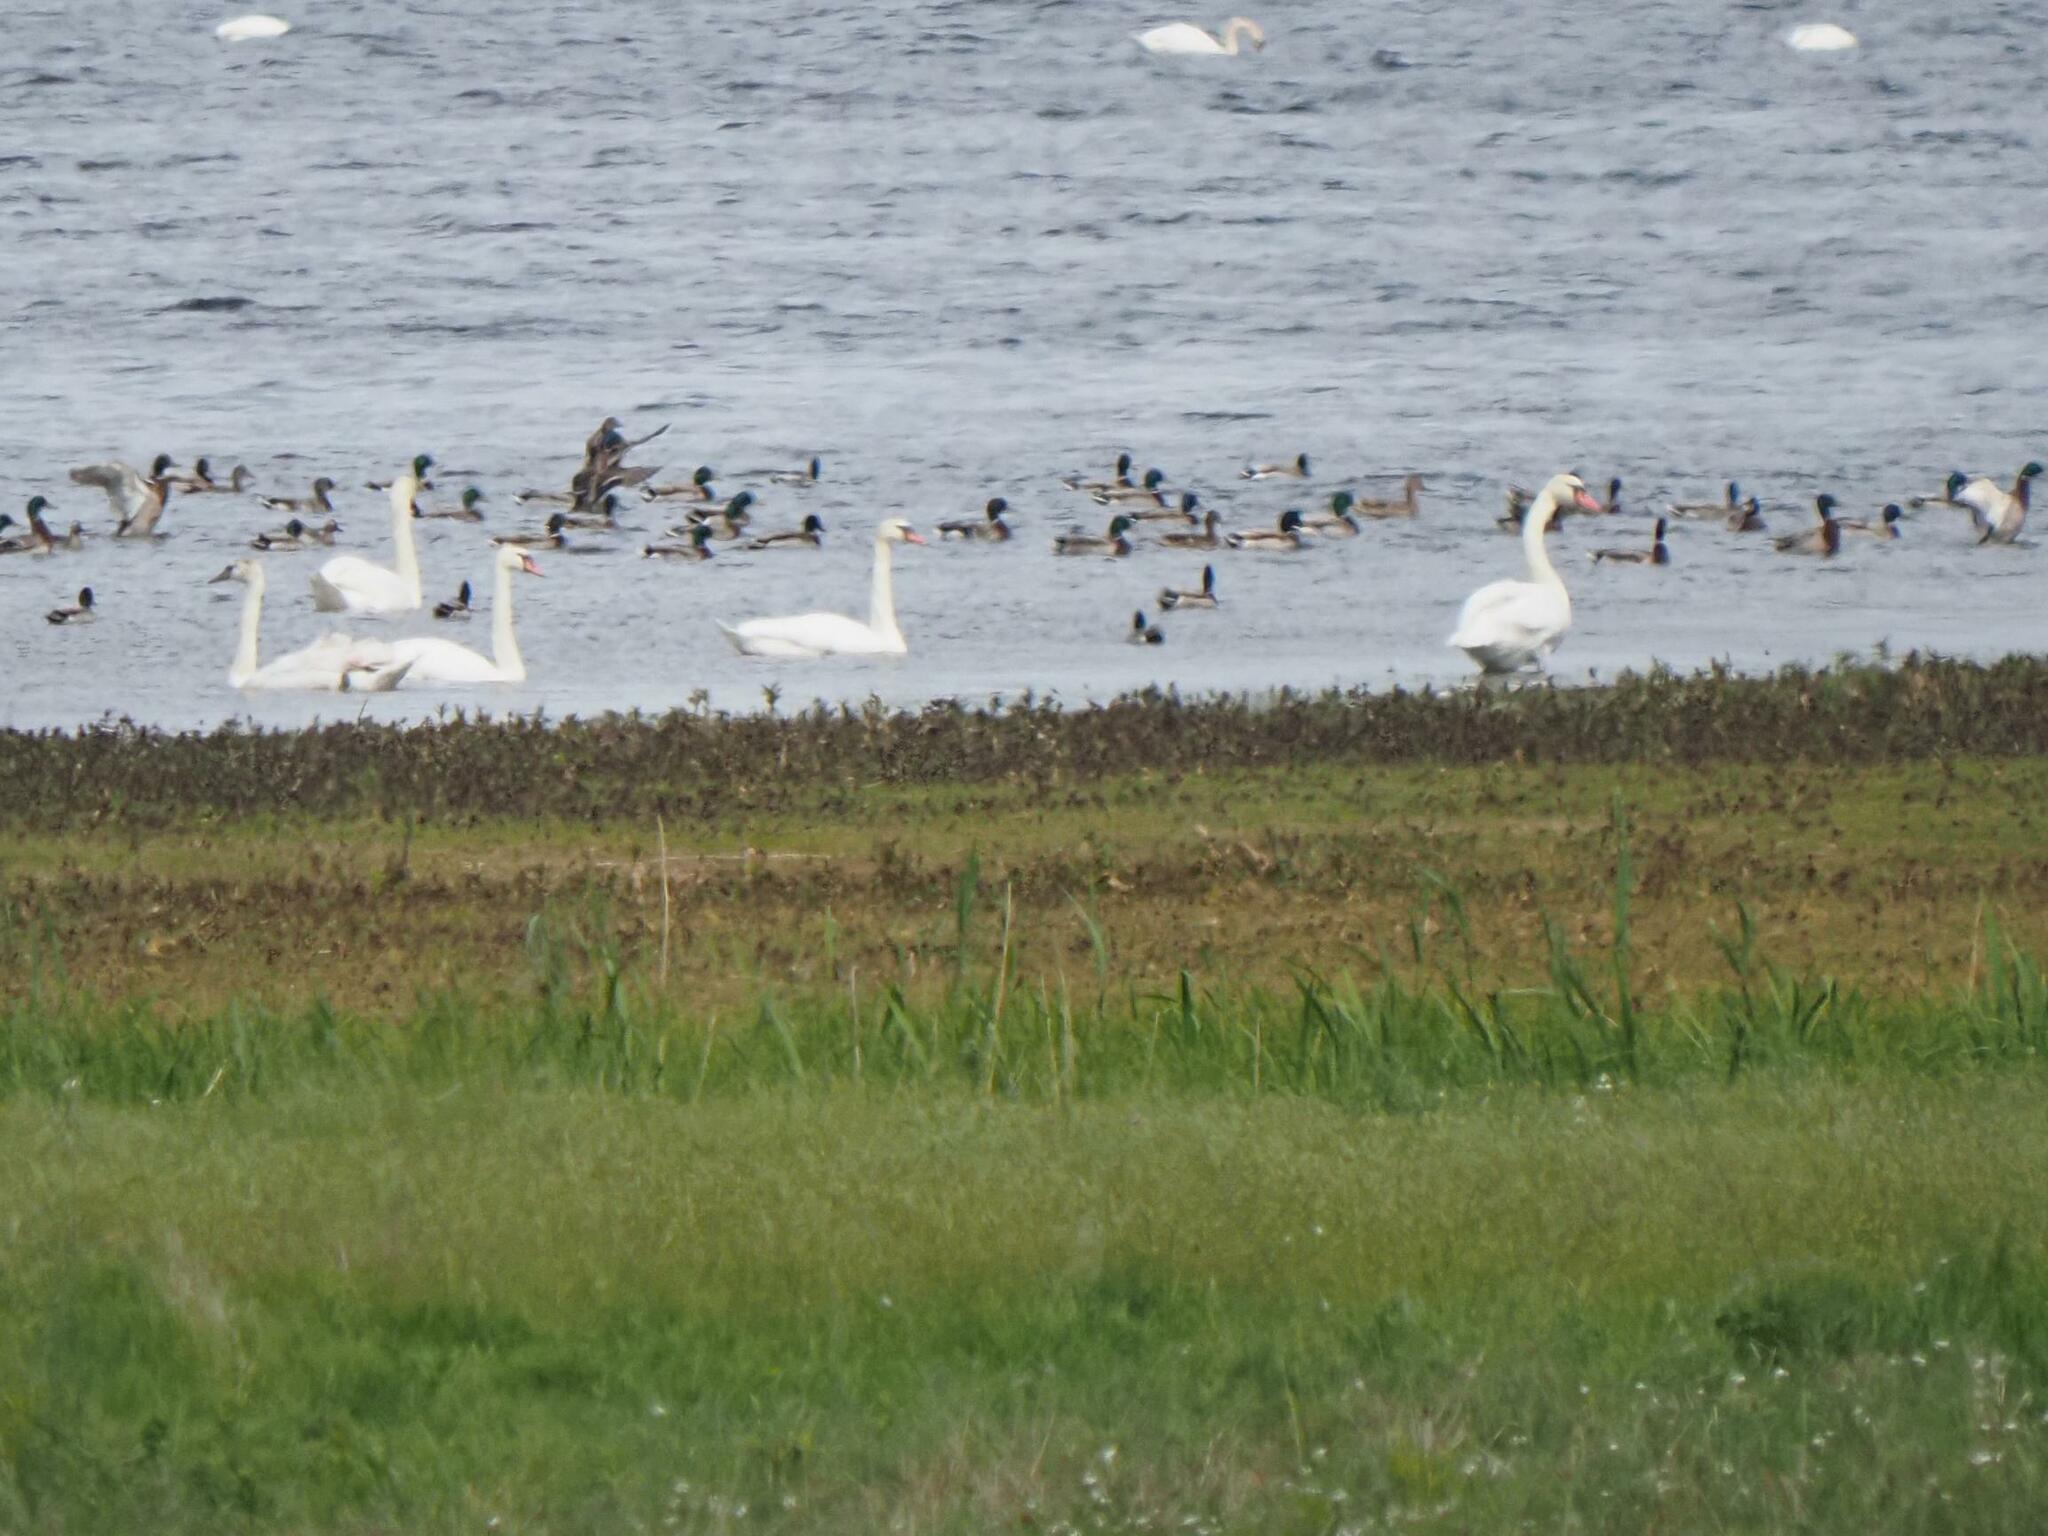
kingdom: Animalia
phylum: Chordata
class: Aves
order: Anseriformes
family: Anatidae
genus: Cygnus
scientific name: Cygnus olor
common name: Mute swan
